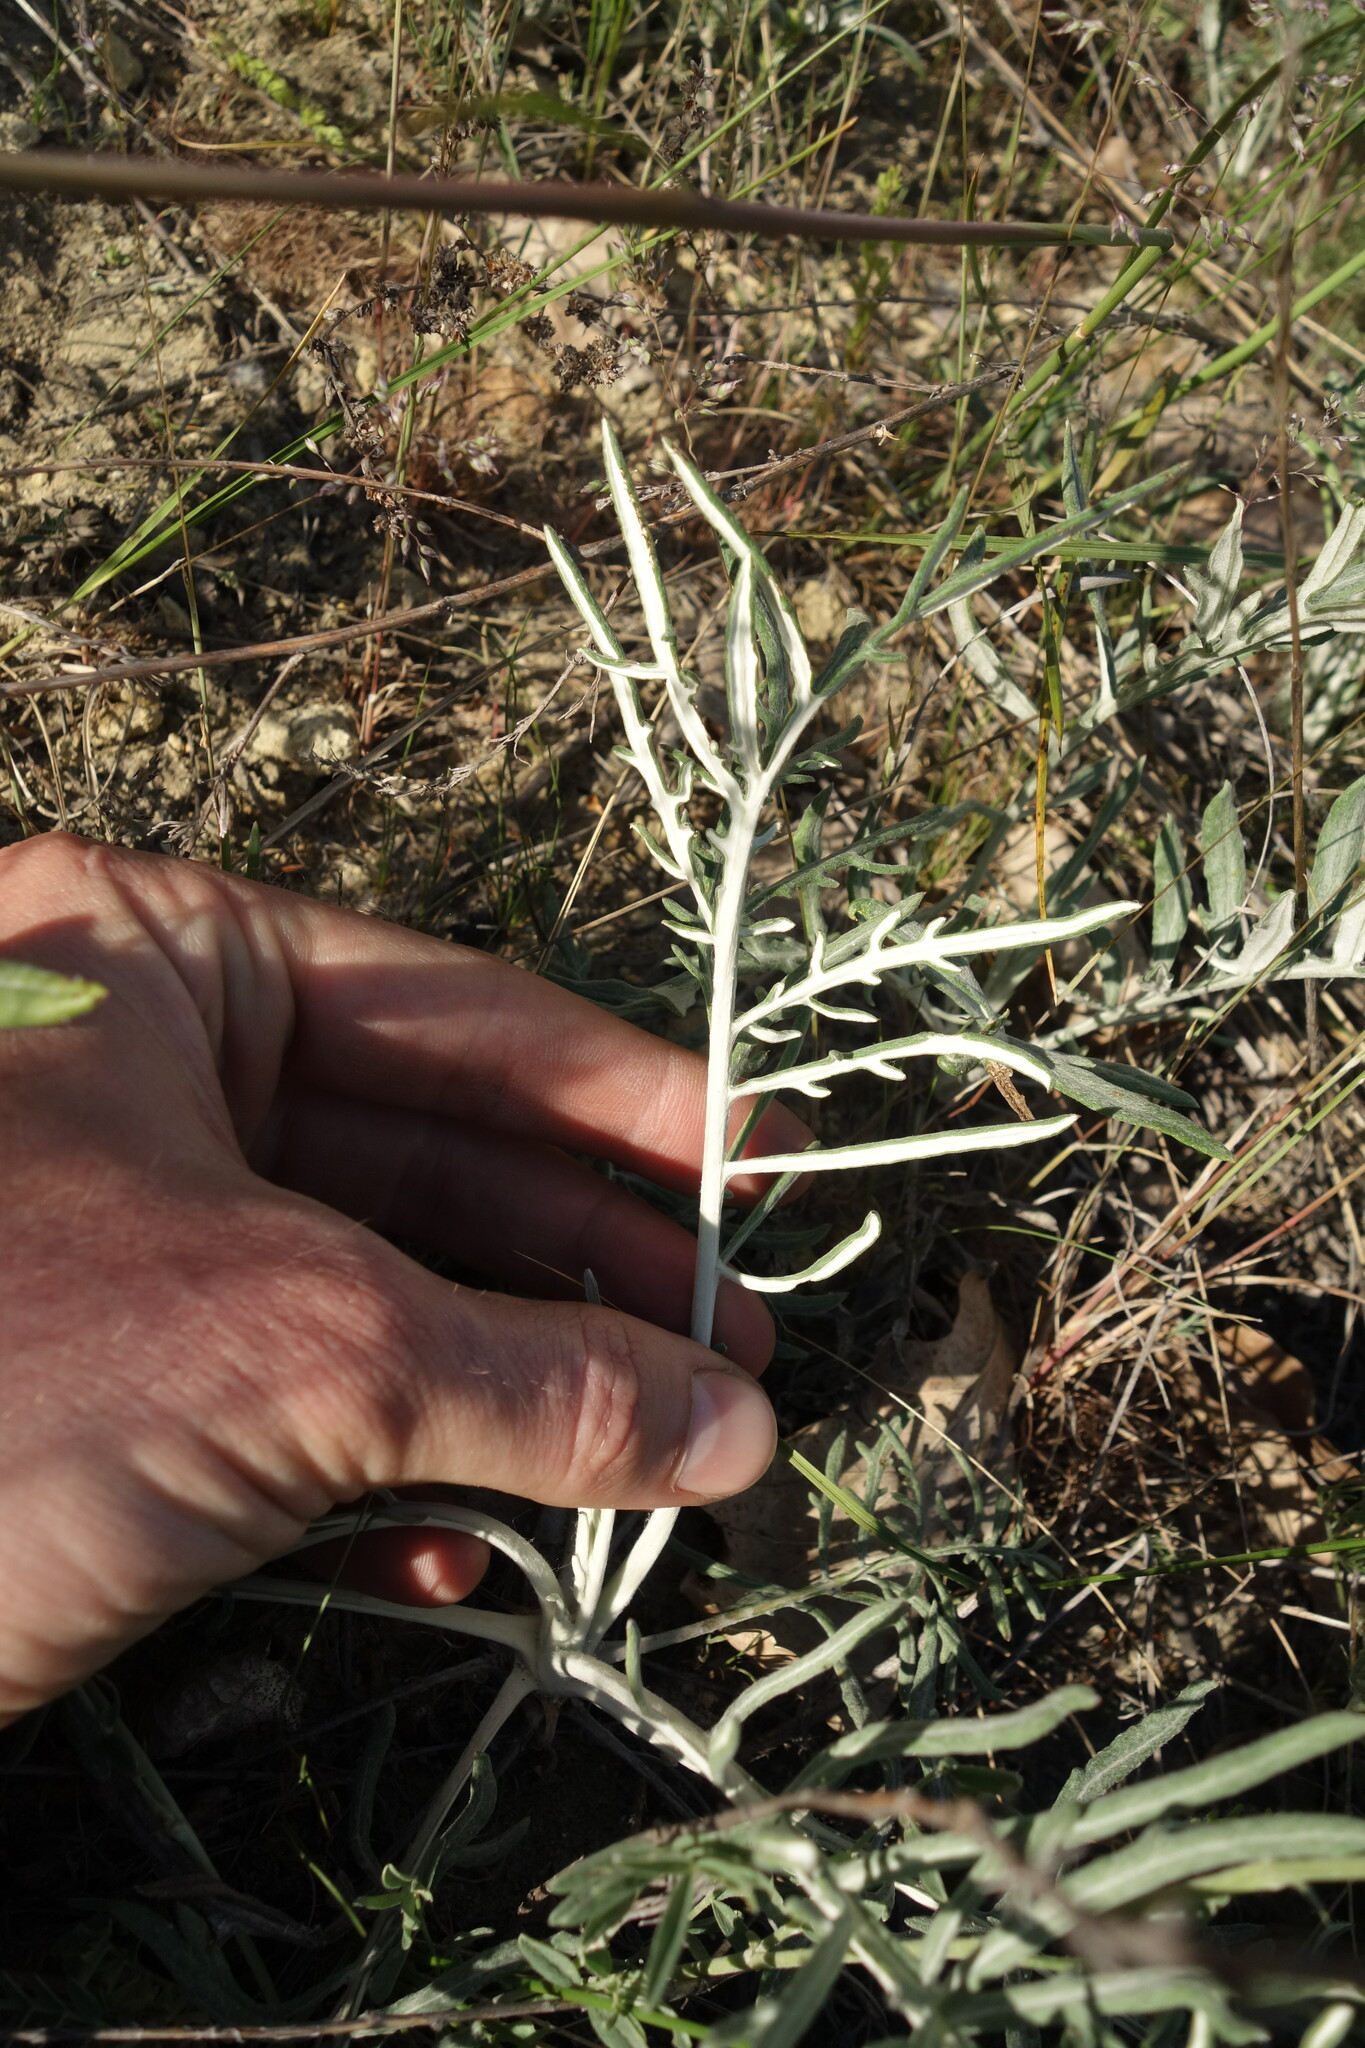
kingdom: Plantae
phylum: Tracheophyta
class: Magnoliopsida
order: Asterales
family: Asteraceae
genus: Jurinea
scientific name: Jurinea cyanoides
